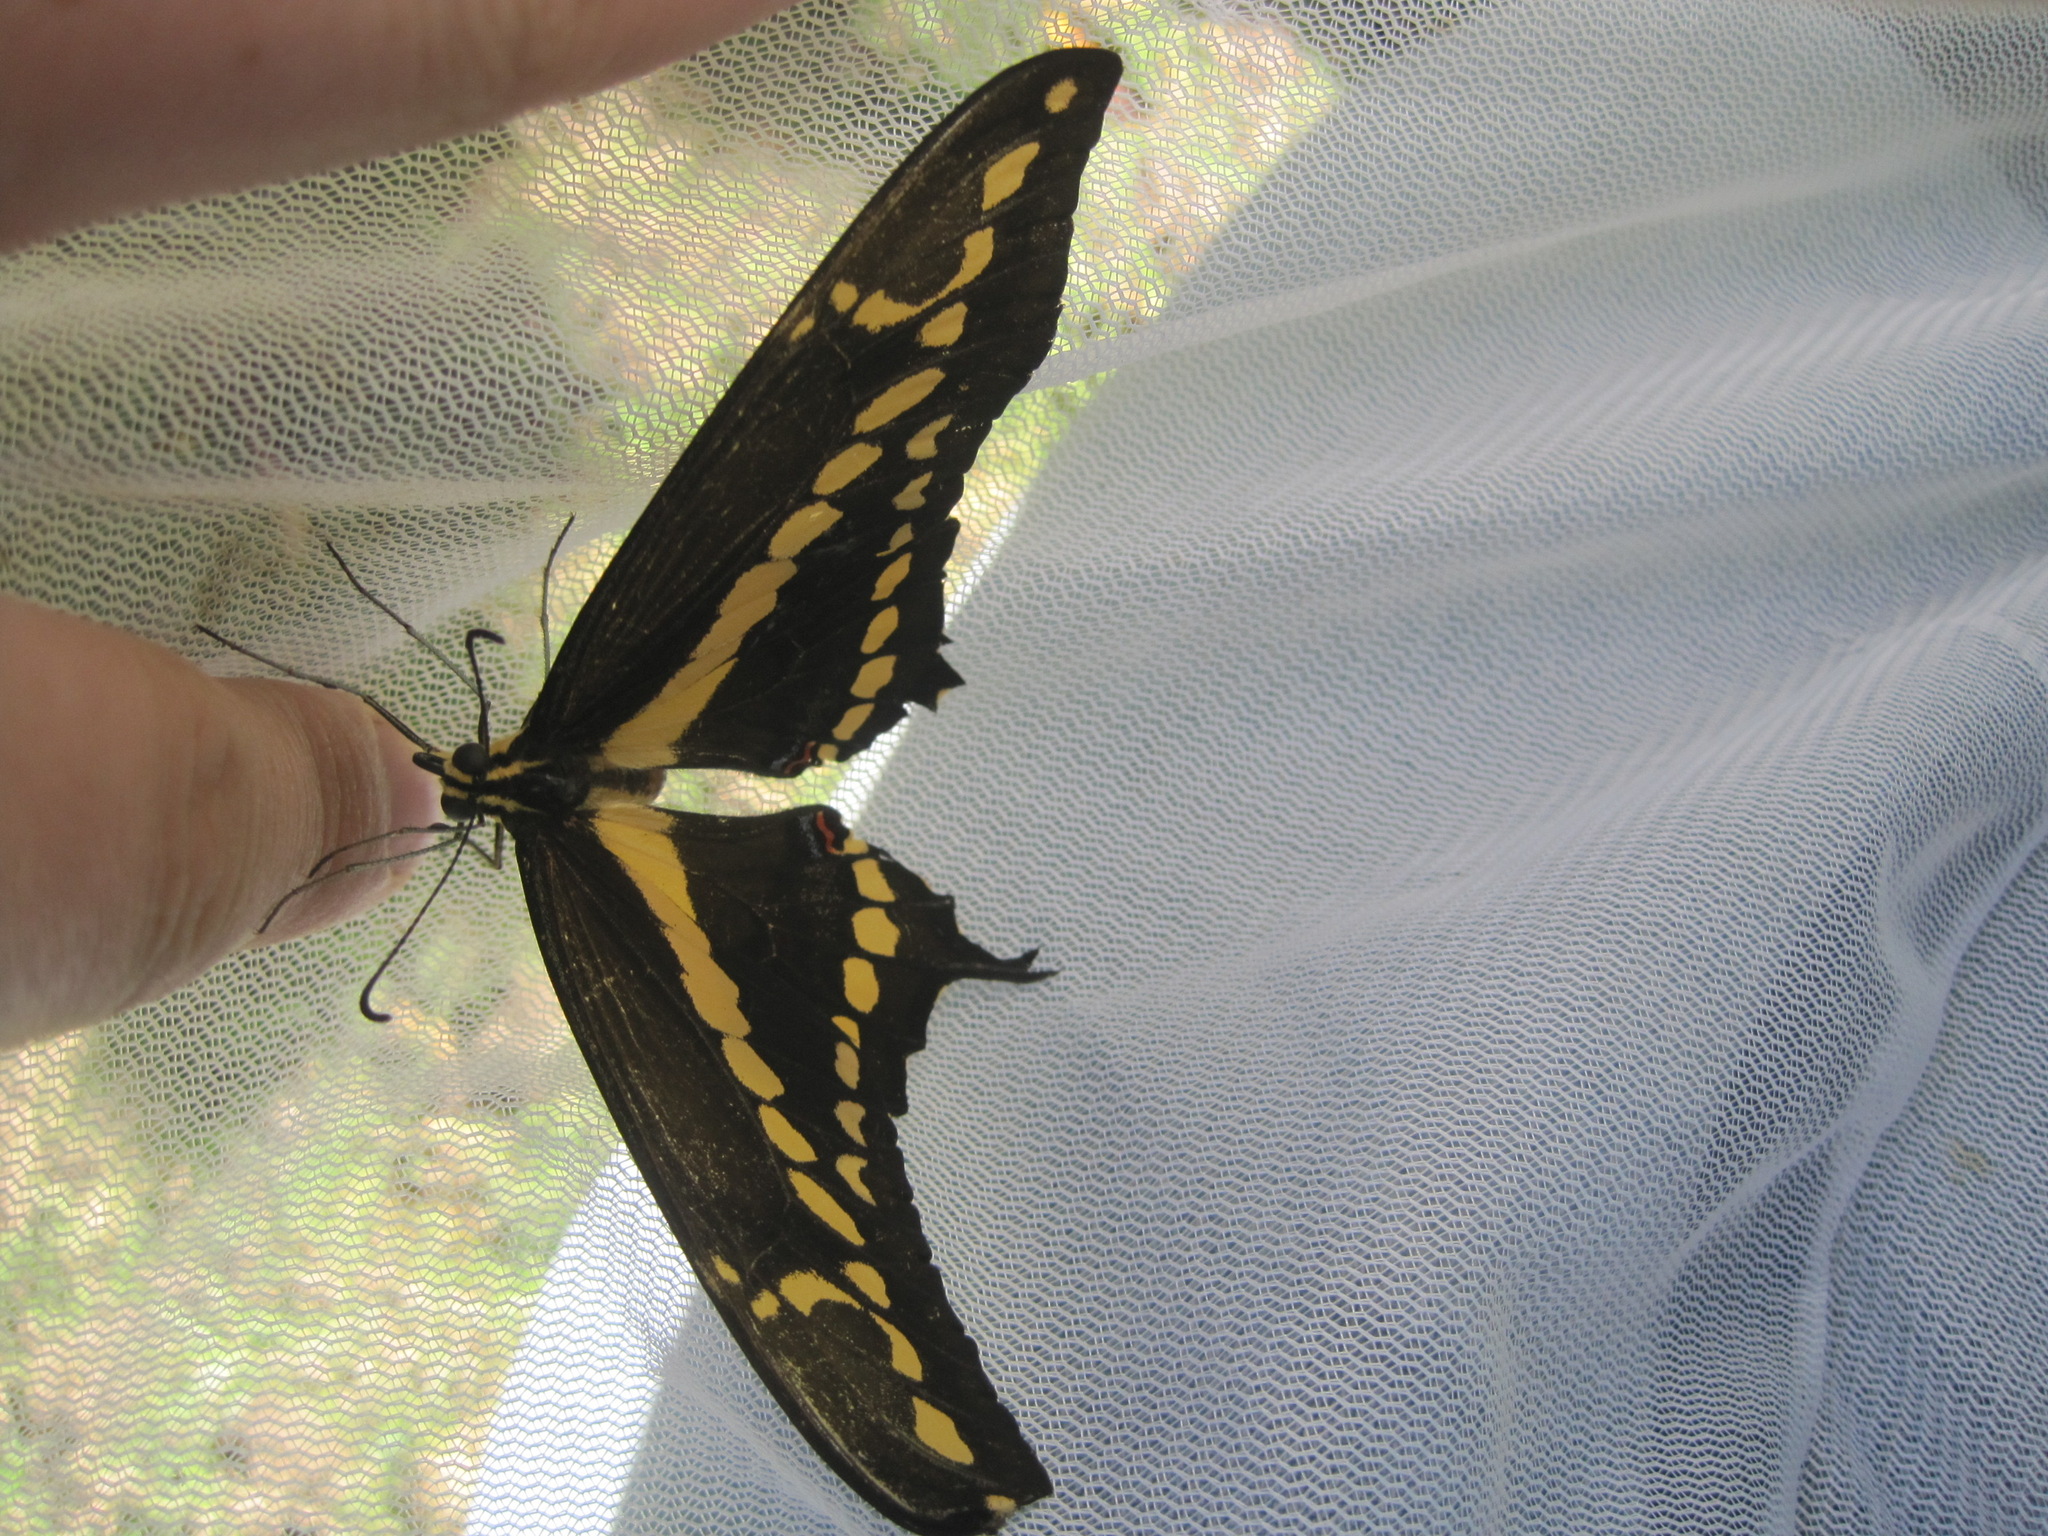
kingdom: Animalia
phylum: Arthropoda
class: Insecta
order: Lepidoptera
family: Papilionidae
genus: Papilio
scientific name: Papilio rumiko
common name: Western giant swallowtail
